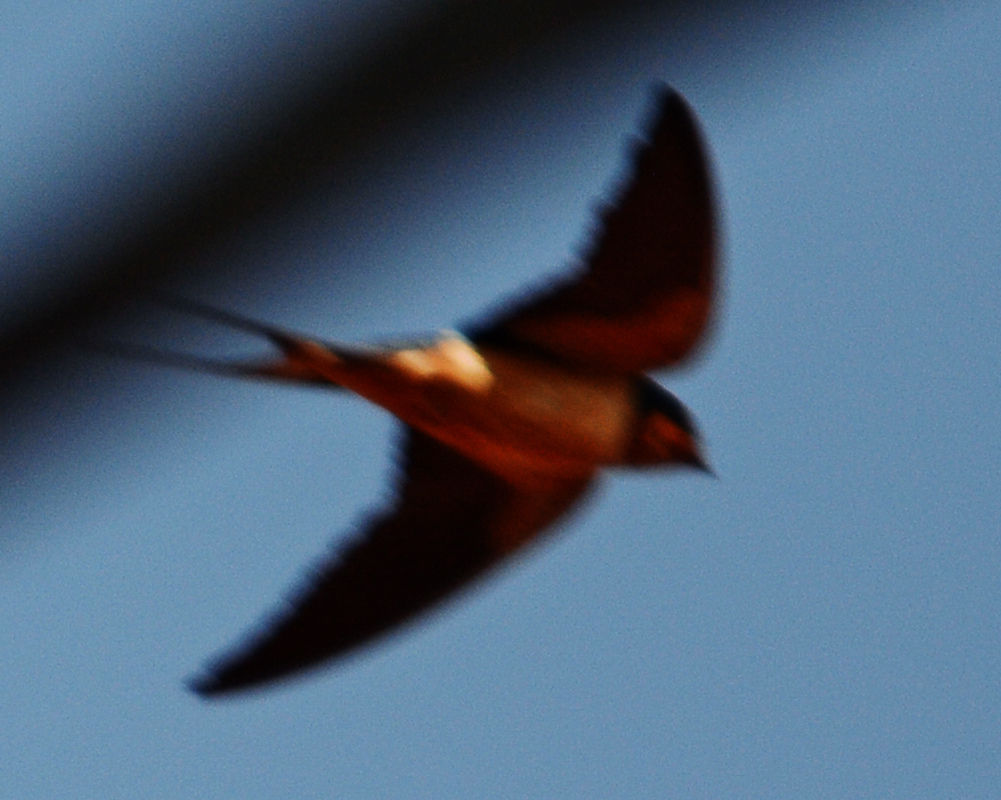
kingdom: Animalia
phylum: Chordata
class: Aves
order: Passeriformes
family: Hirundinidae
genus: Hirundo
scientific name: Hirundo rustica
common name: Barn swallow
